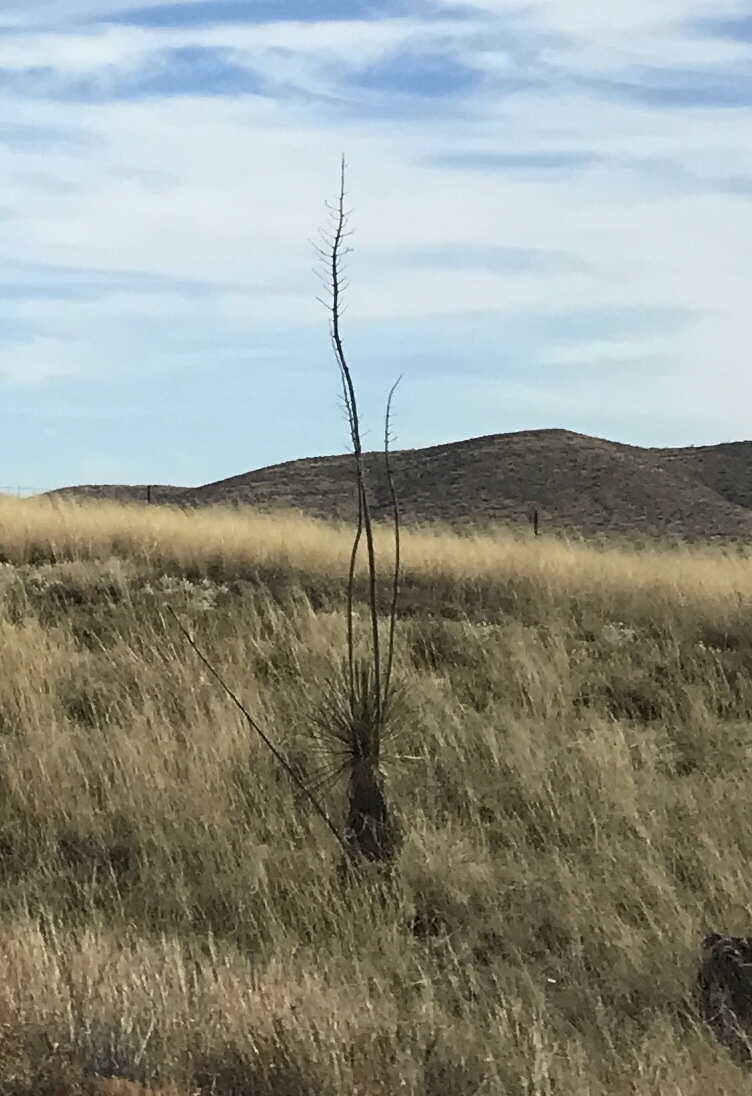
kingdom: Plantae
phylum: Tracheophyta
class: Liliopsida
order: Asparagales
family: Asparagaceae
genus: Yucca
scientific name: Yucca elata
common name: Palmella
